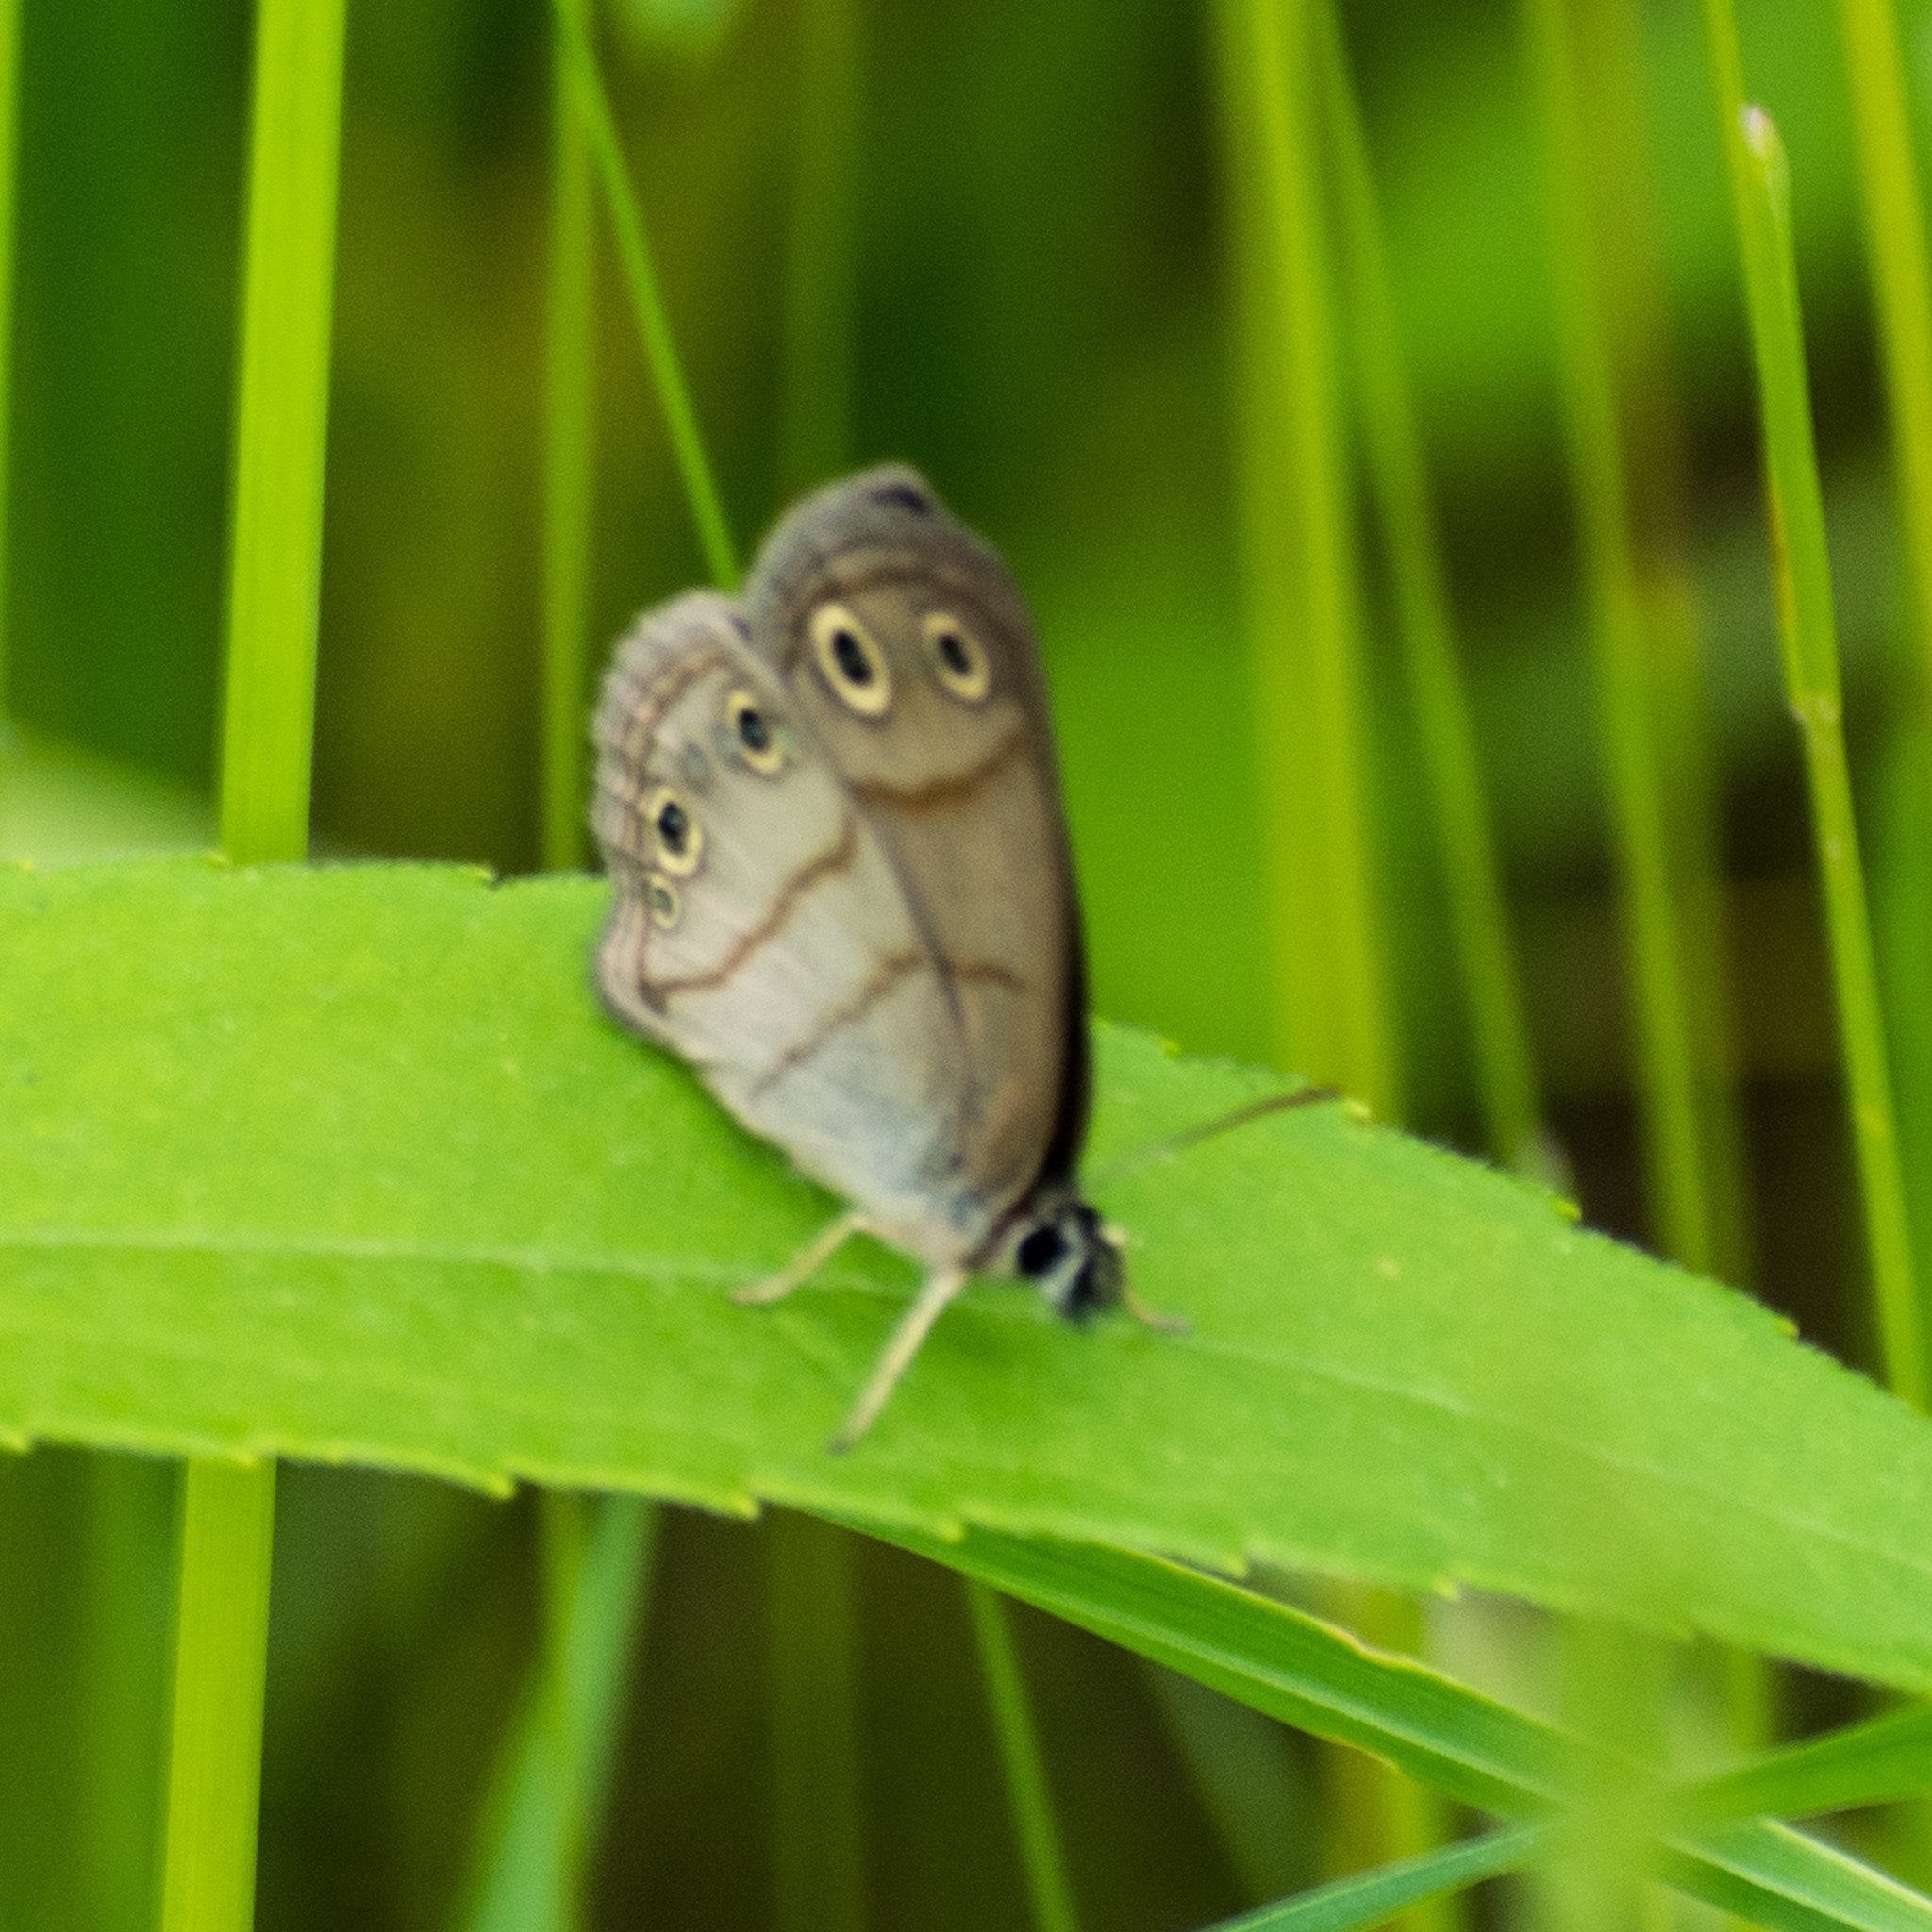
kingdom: Animalia
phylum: Arthropoda
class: Insecta
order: Lepidoptera
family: Nymphalidae
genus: Euptychia
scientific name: Euptychia cymela
